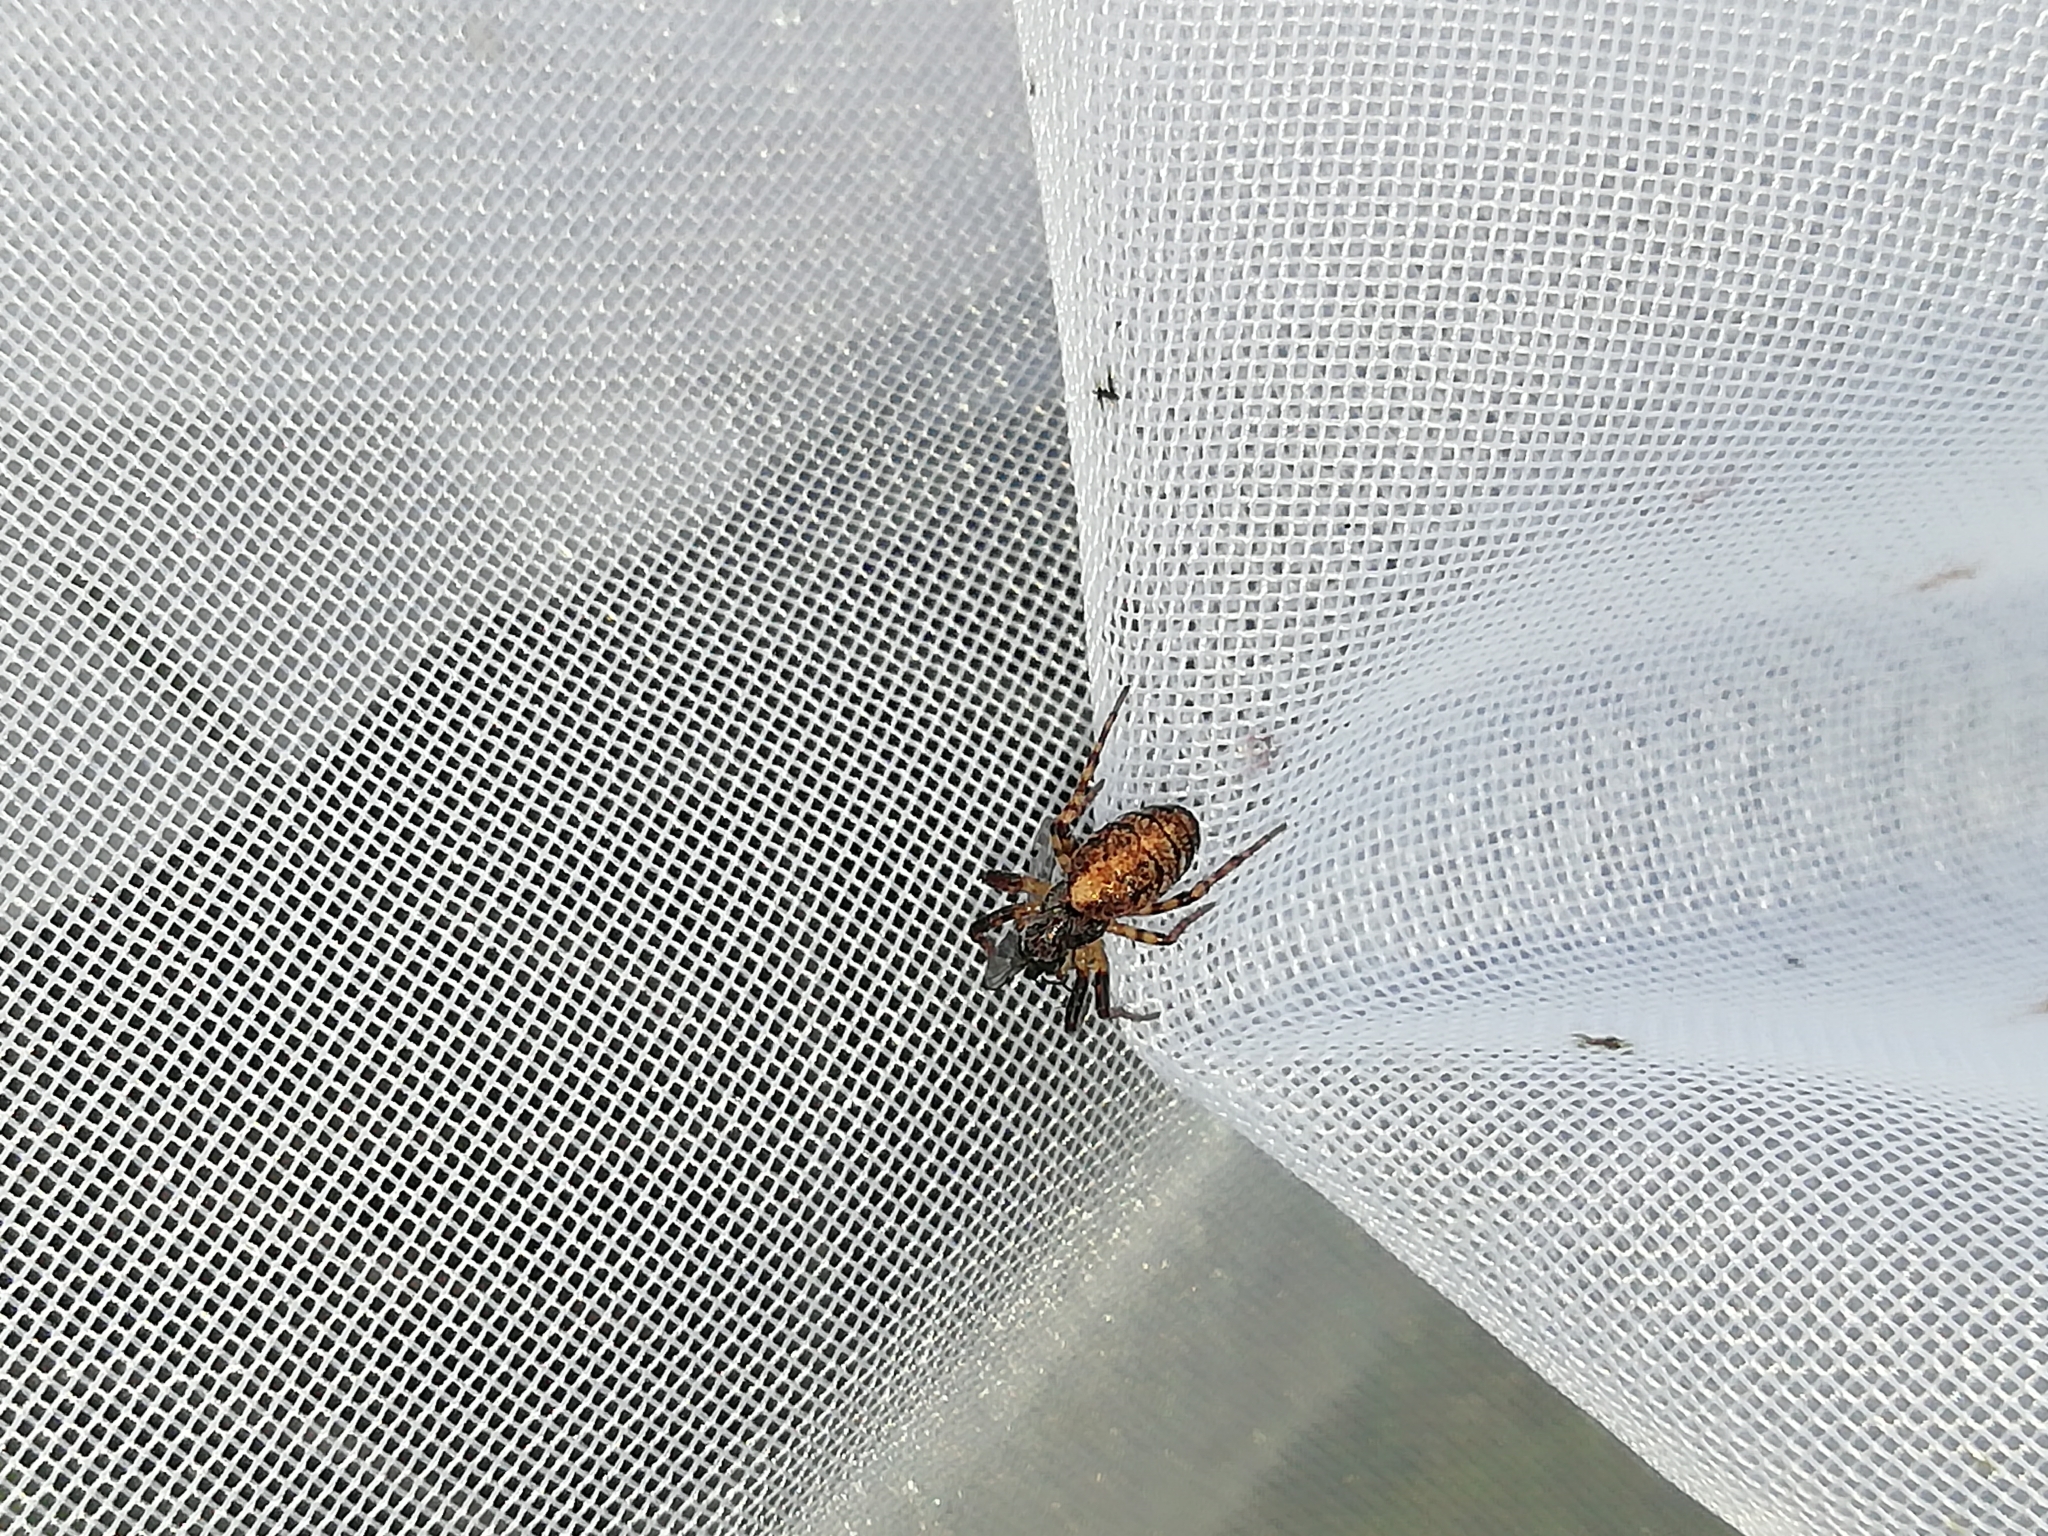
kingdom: Animalia
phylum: Arthropoda
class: Arachnida
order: Araneae
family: Araneidae
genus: Cercidia
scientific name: Cercidia prominens
